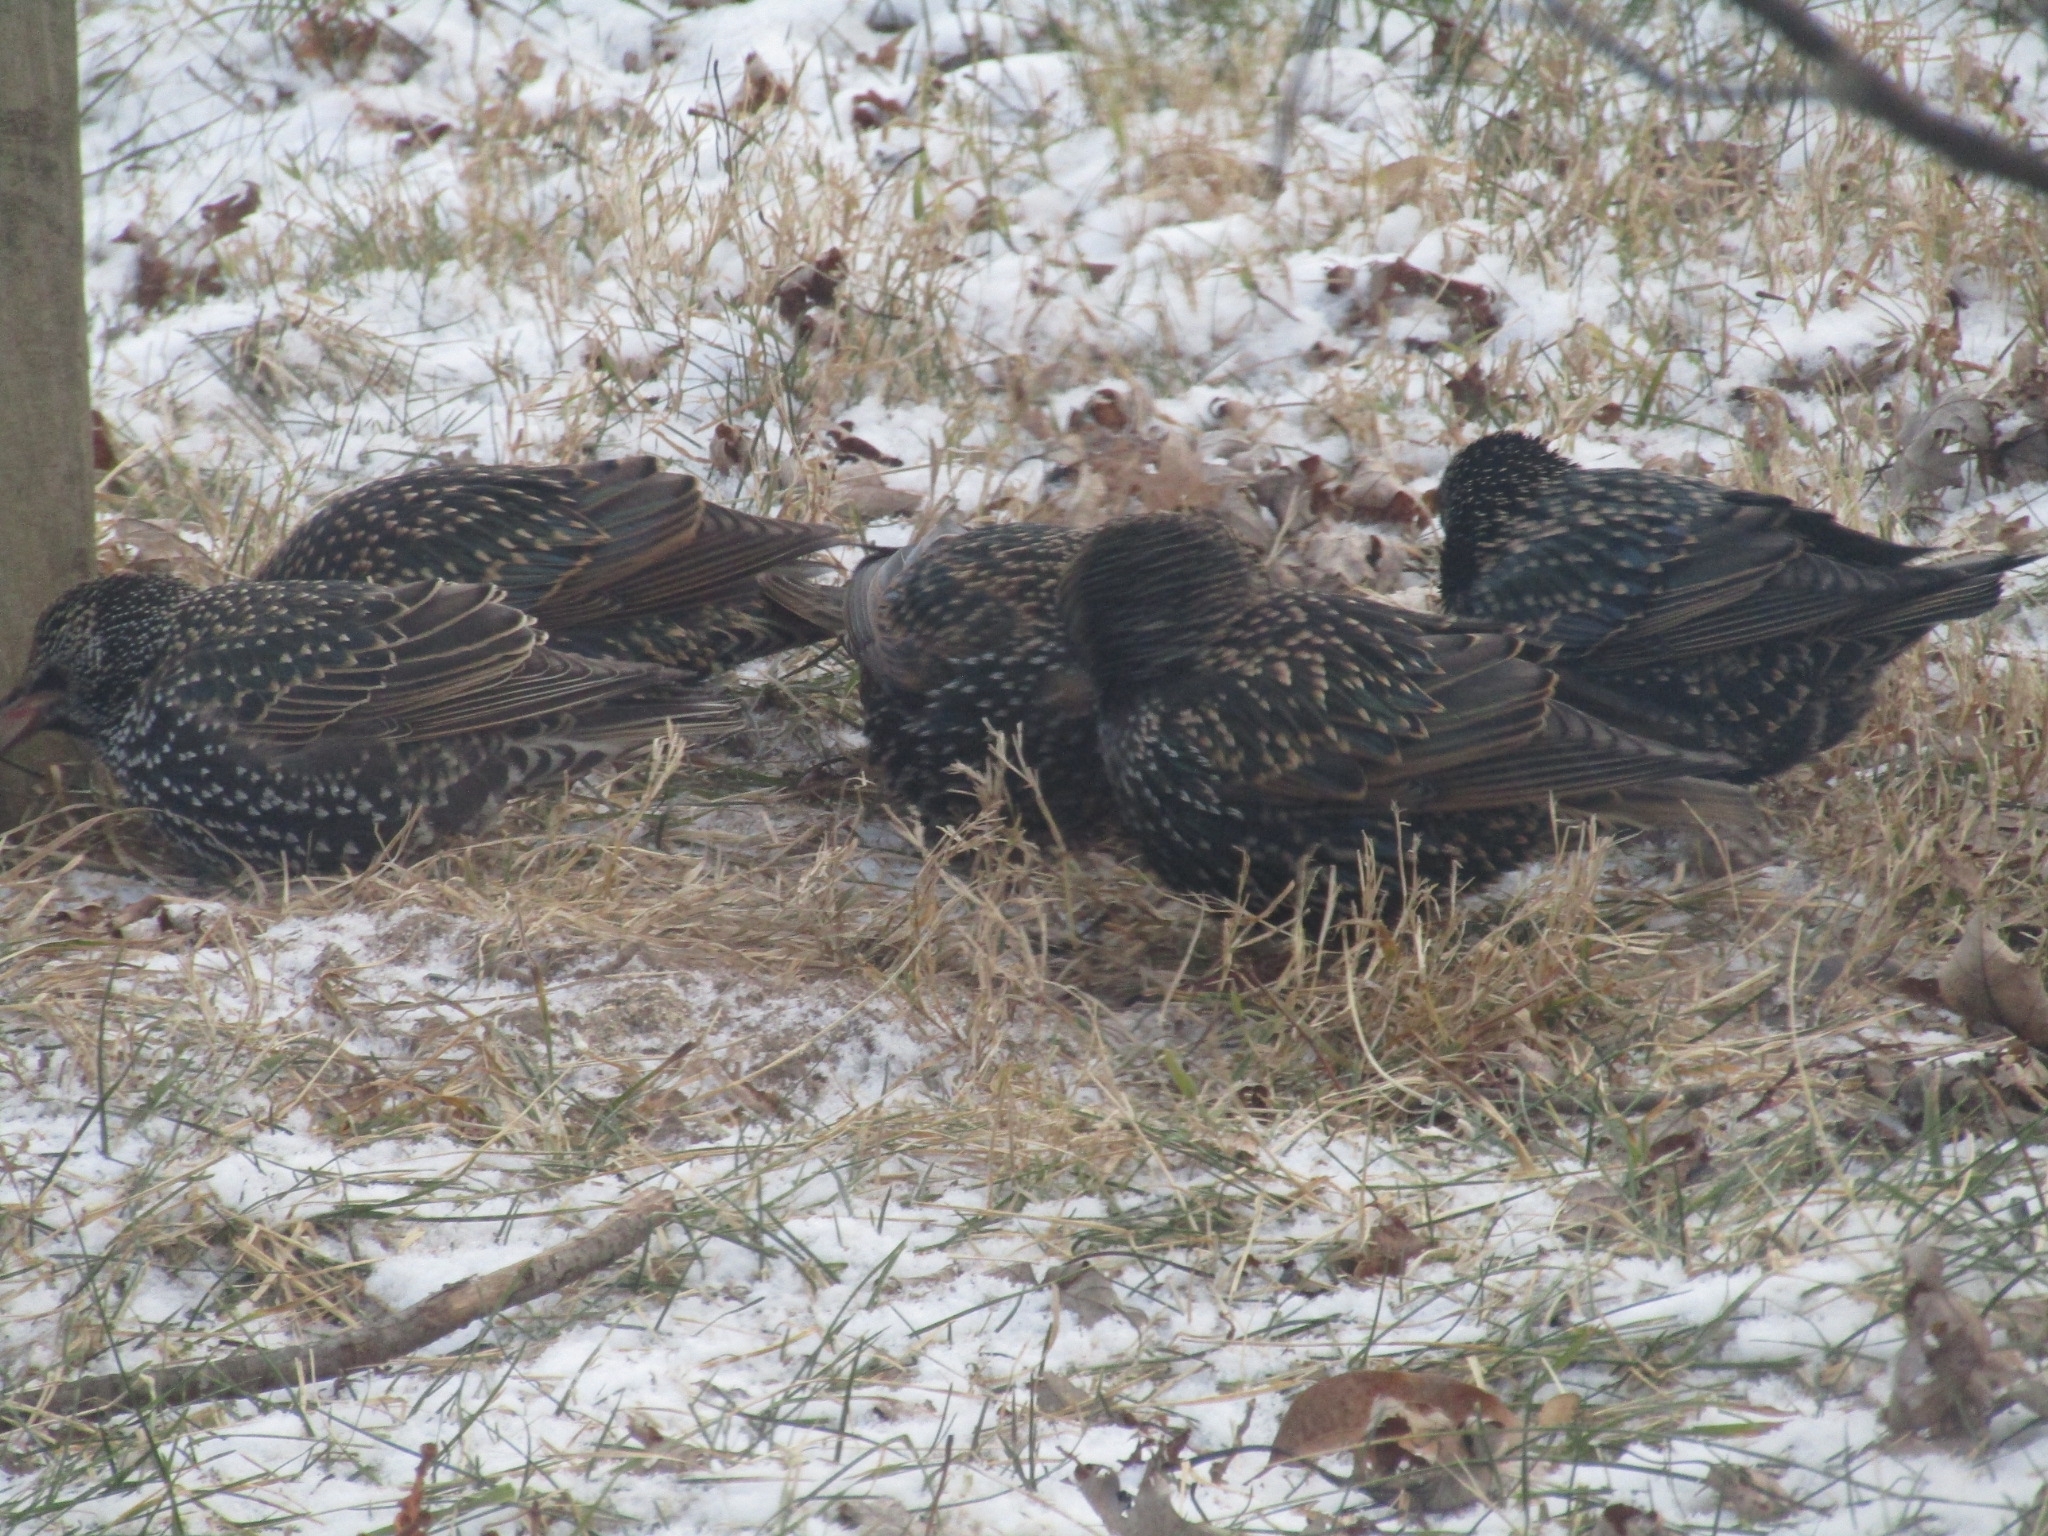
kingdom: Animalia
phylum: Chordata
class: Aves
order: Passeriformes
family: Sturnidae
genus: Sturnus
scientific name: Sturnus vulgaris
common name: Common starling
